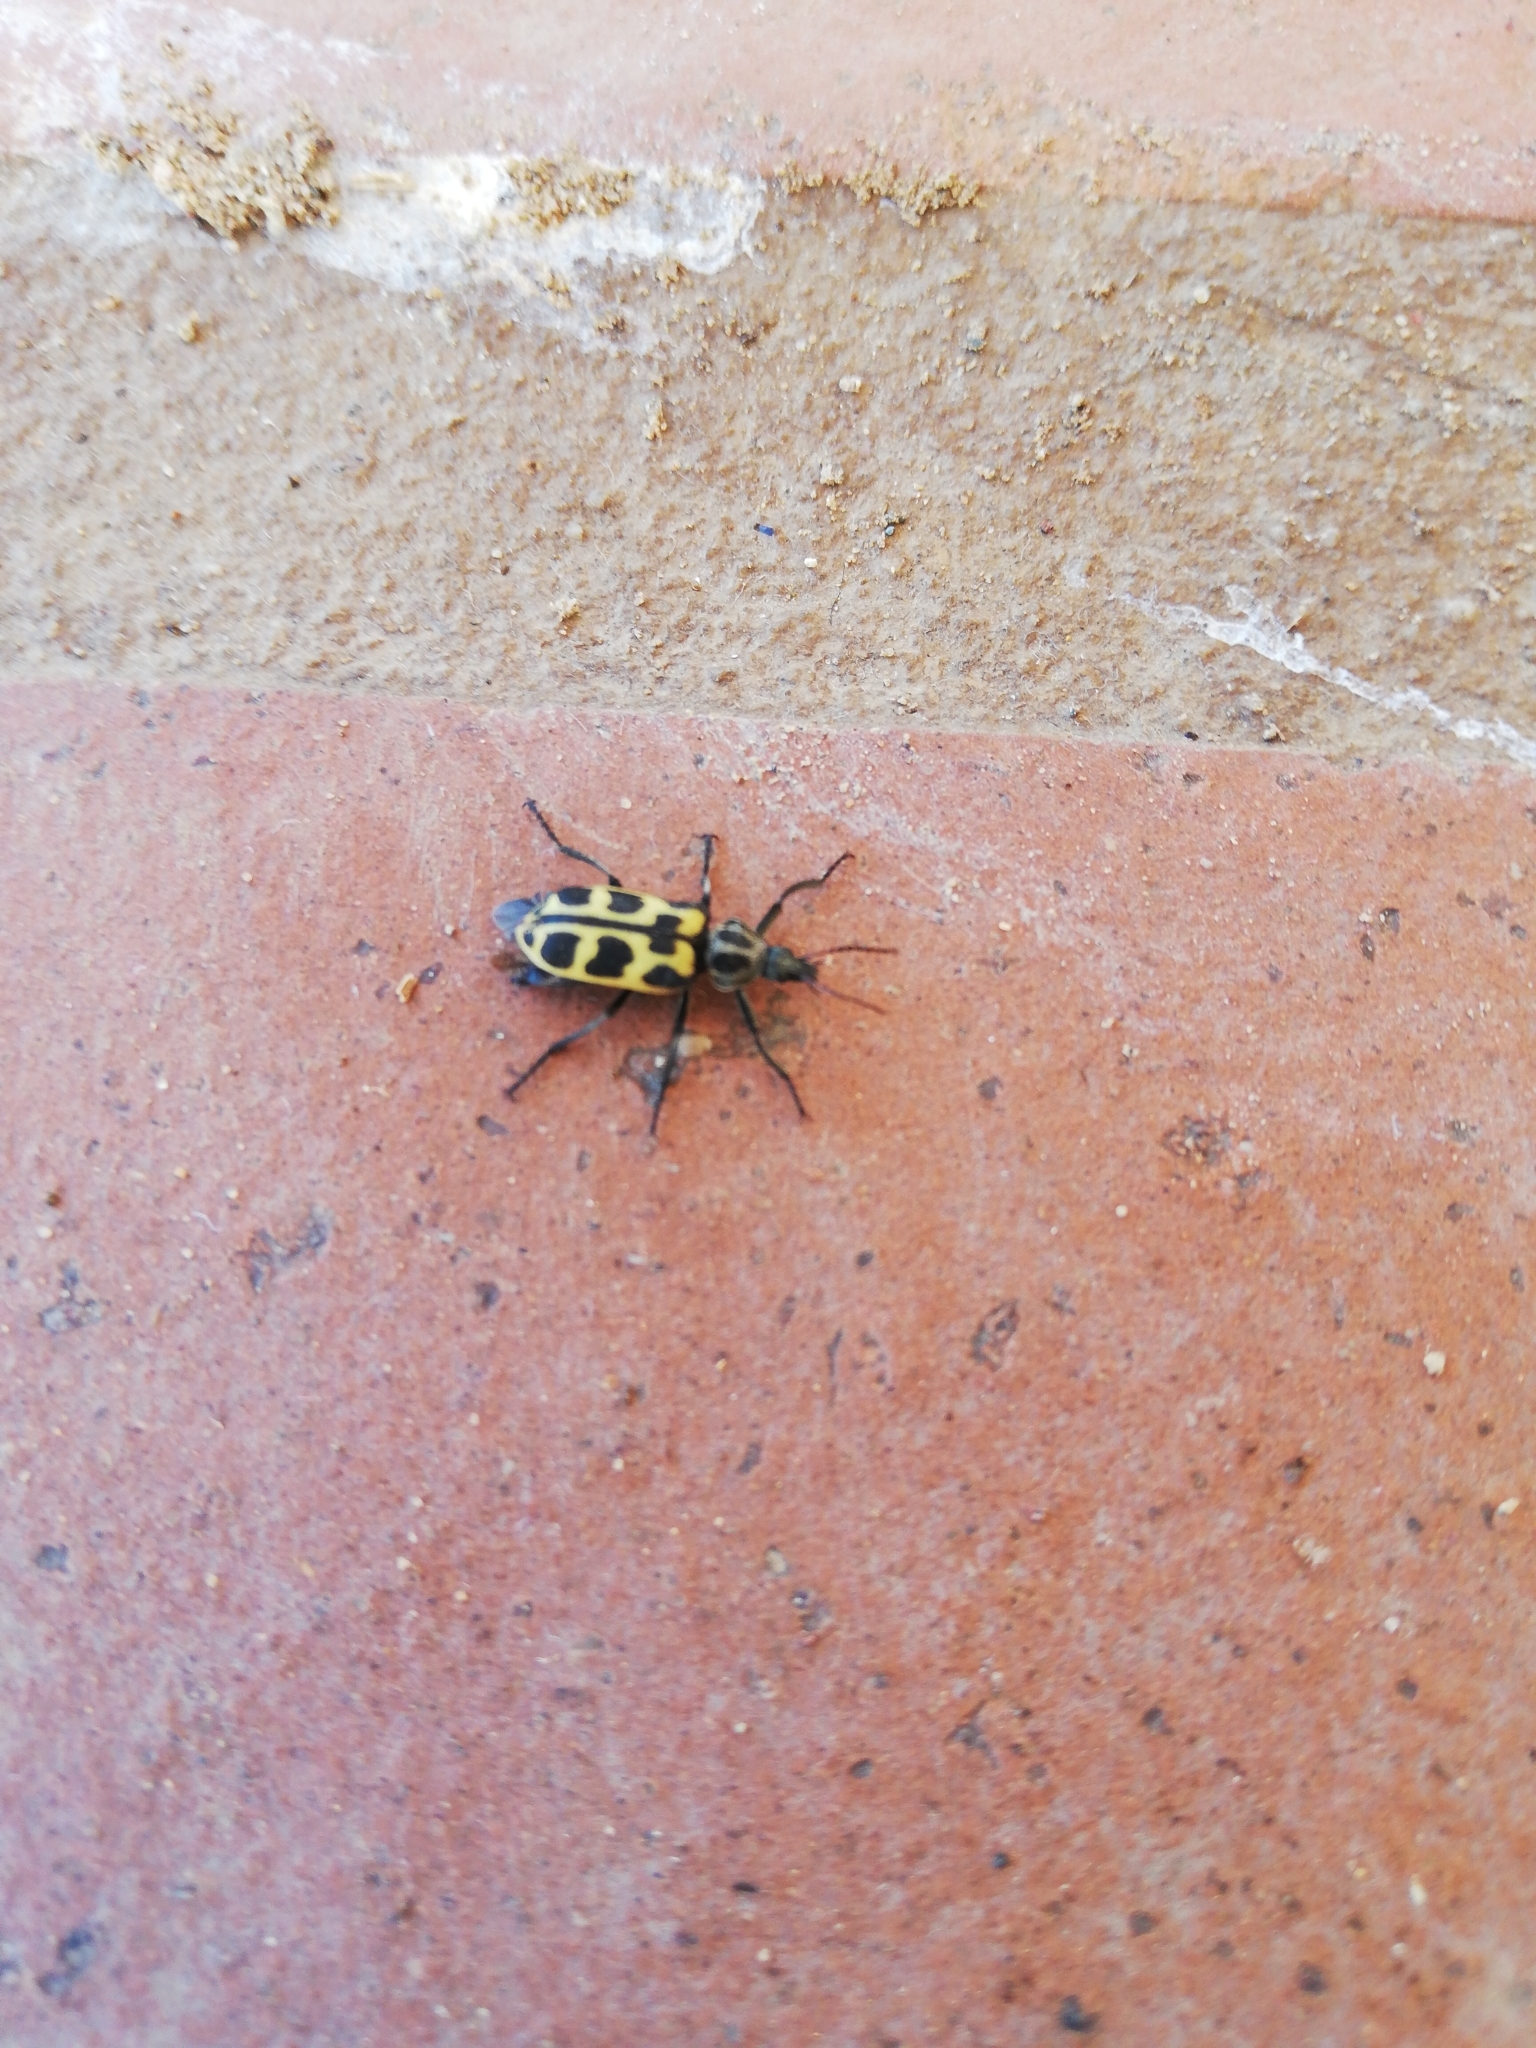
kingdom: Animalia
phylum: Arthropoda
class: Insecta
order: Coleoptera
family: Melyridae
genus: Astylus
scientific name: Astylus atromaculatus
